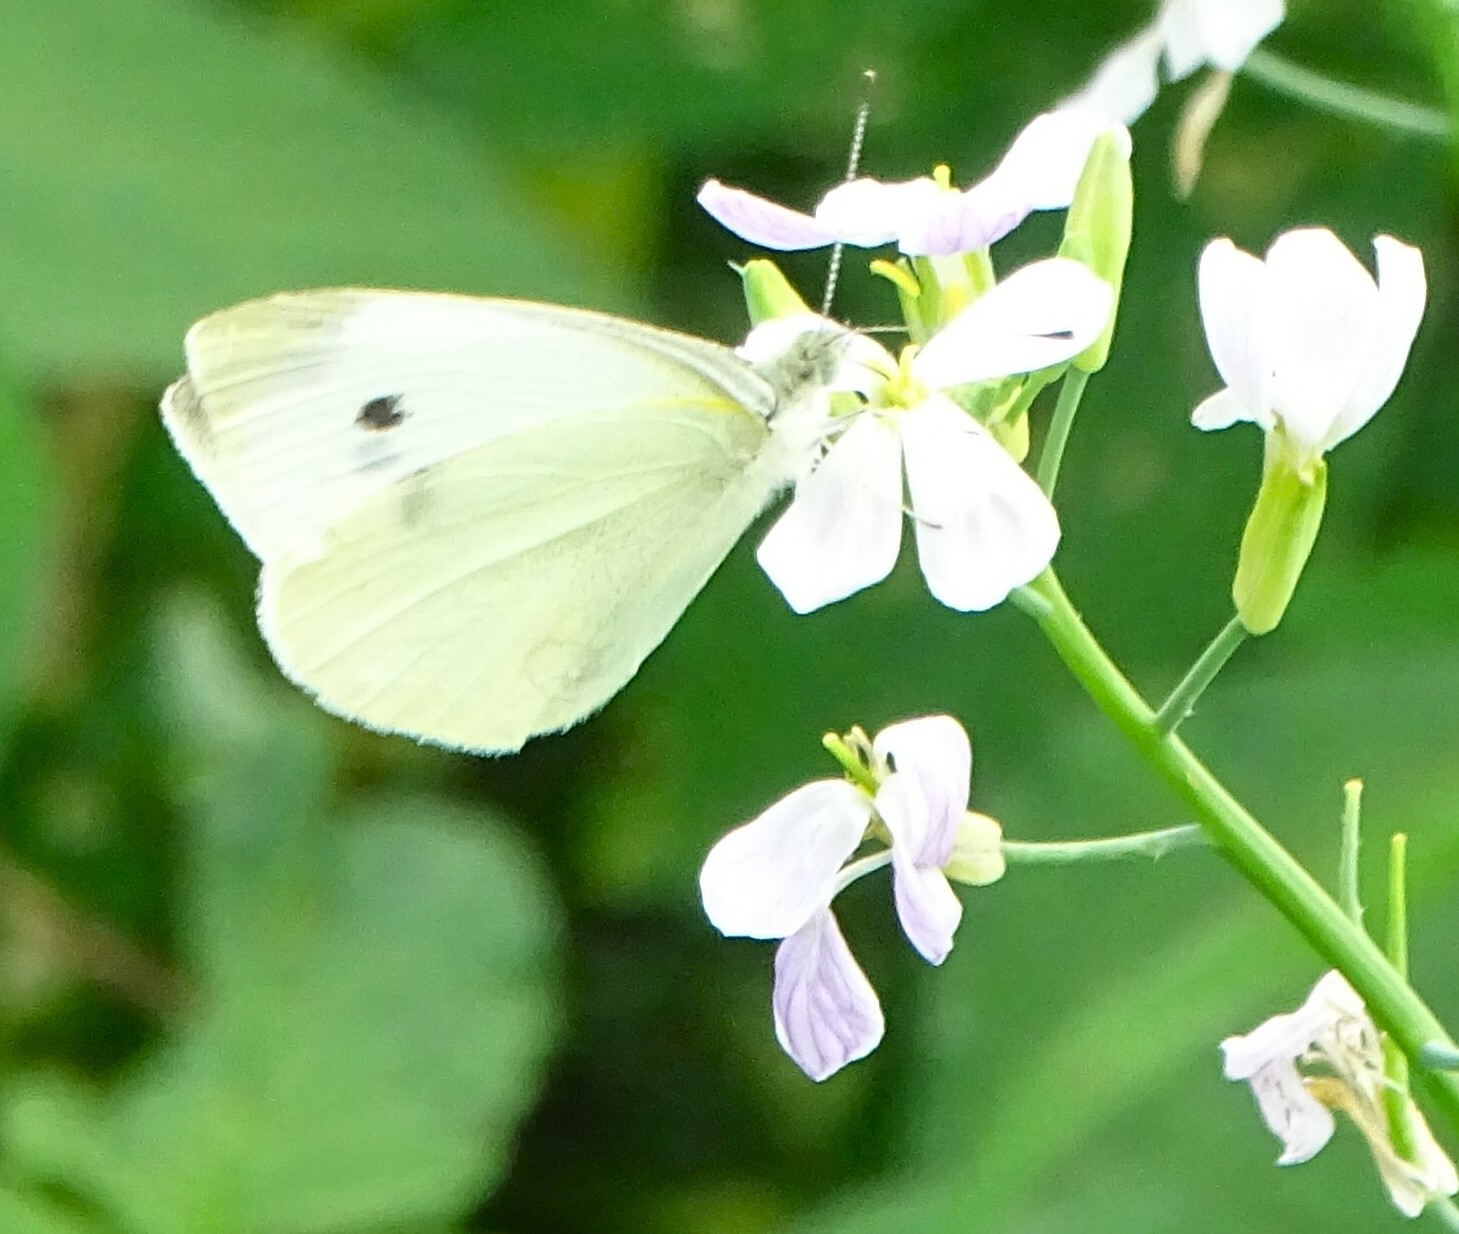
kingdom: Animalia
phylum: Arthropoda
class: Insecta
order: Lepidoptera
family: Pieridae
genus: Pieris
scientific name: Pieris rapae
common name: Small white
